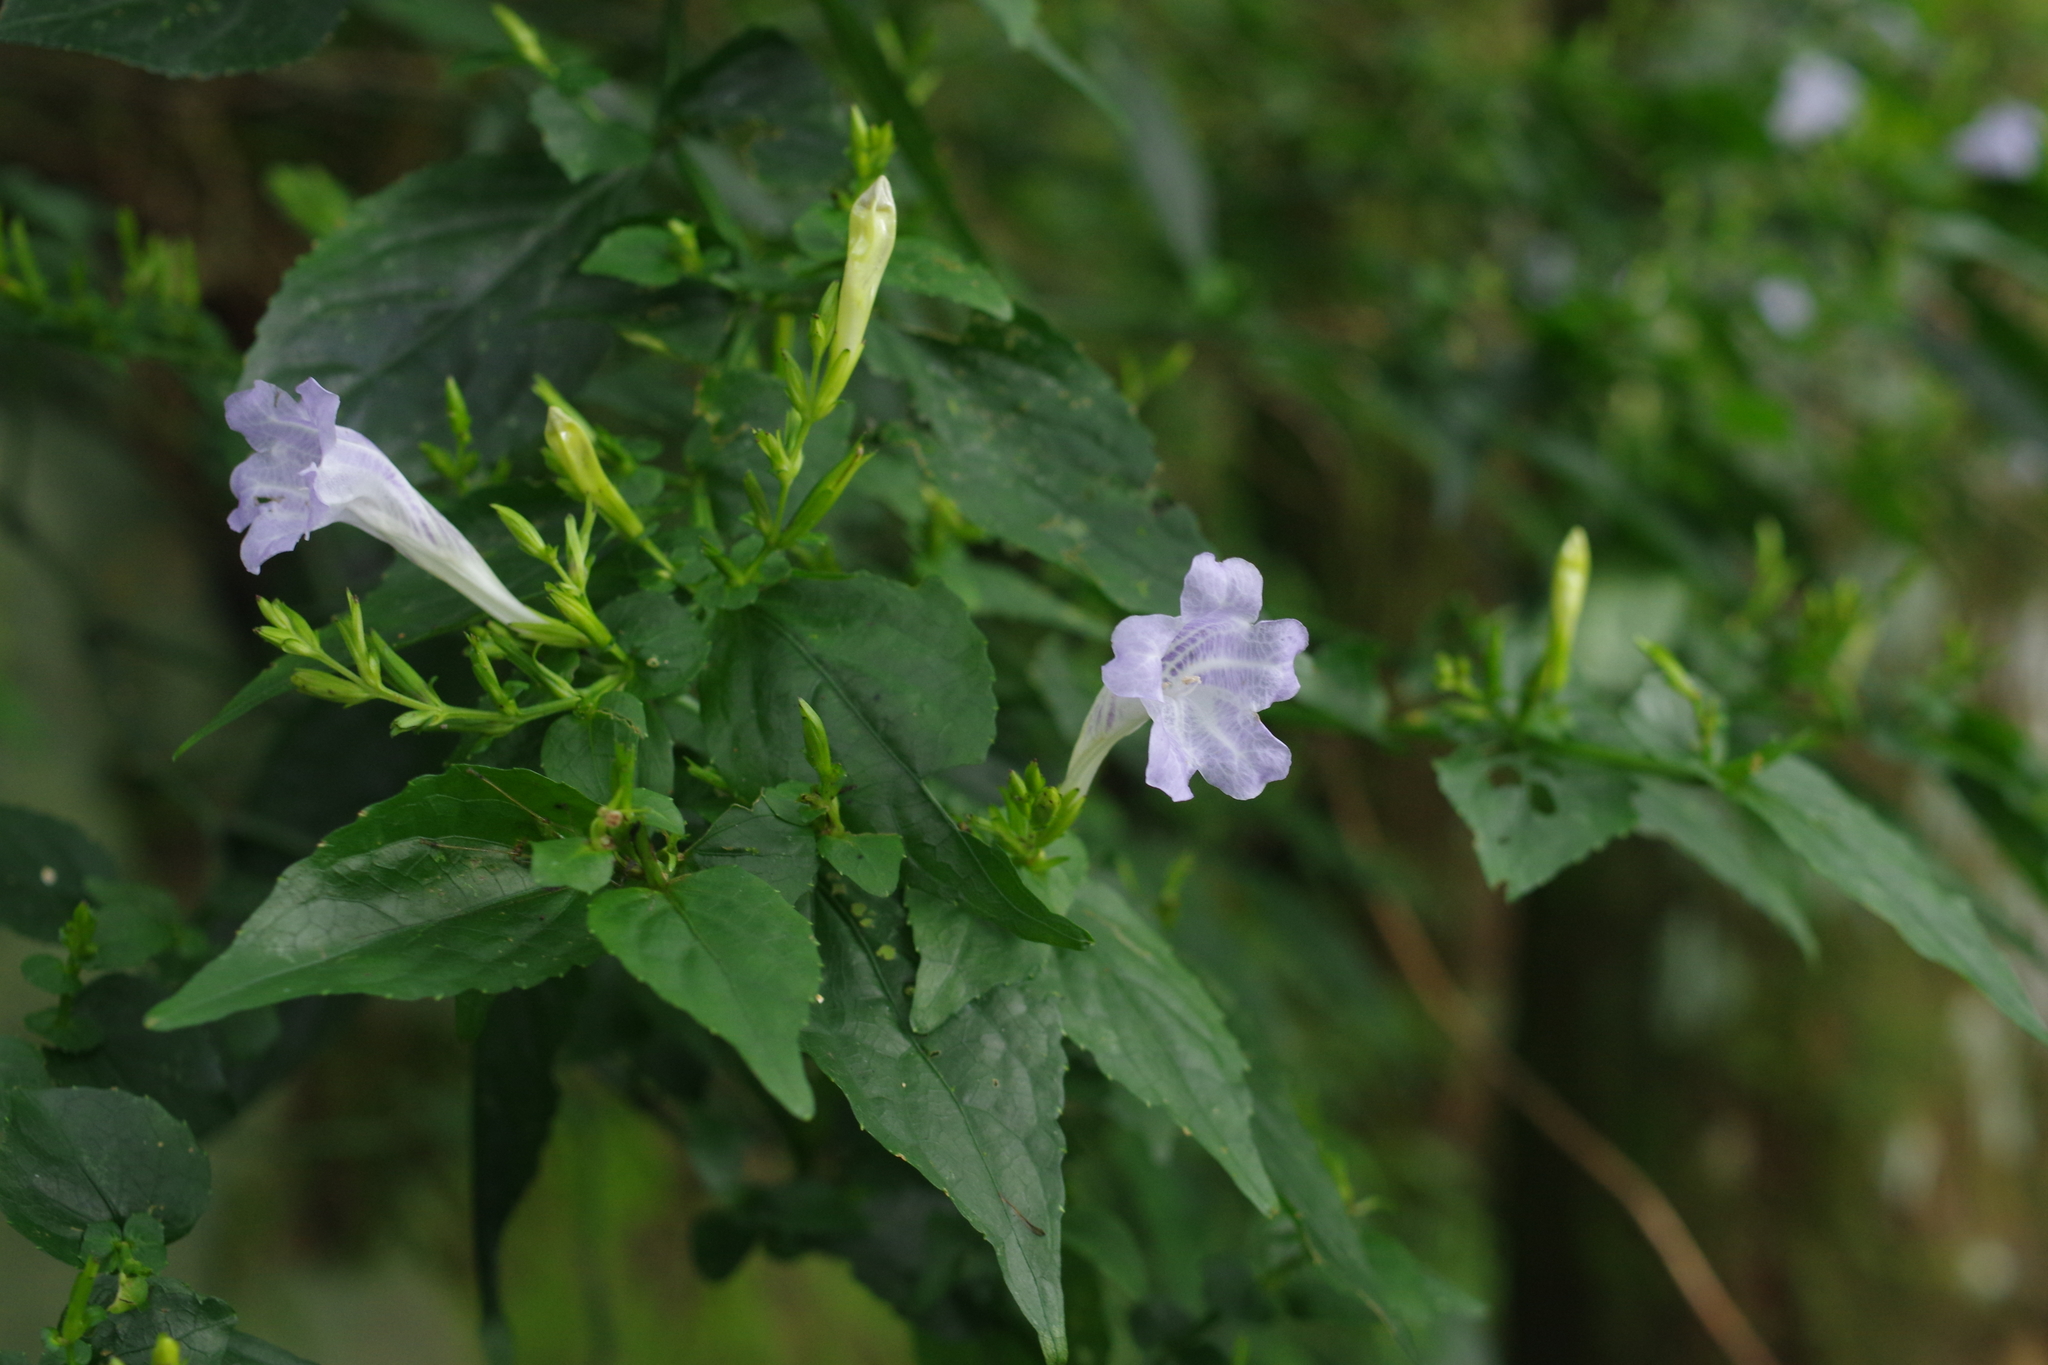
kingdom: Plantae
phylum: Tracheophyta
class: Magnoliopsida
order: Lamiales
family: Acanthaceae
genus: Strobilanthes
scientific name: Strobilanthes flexicaulis
